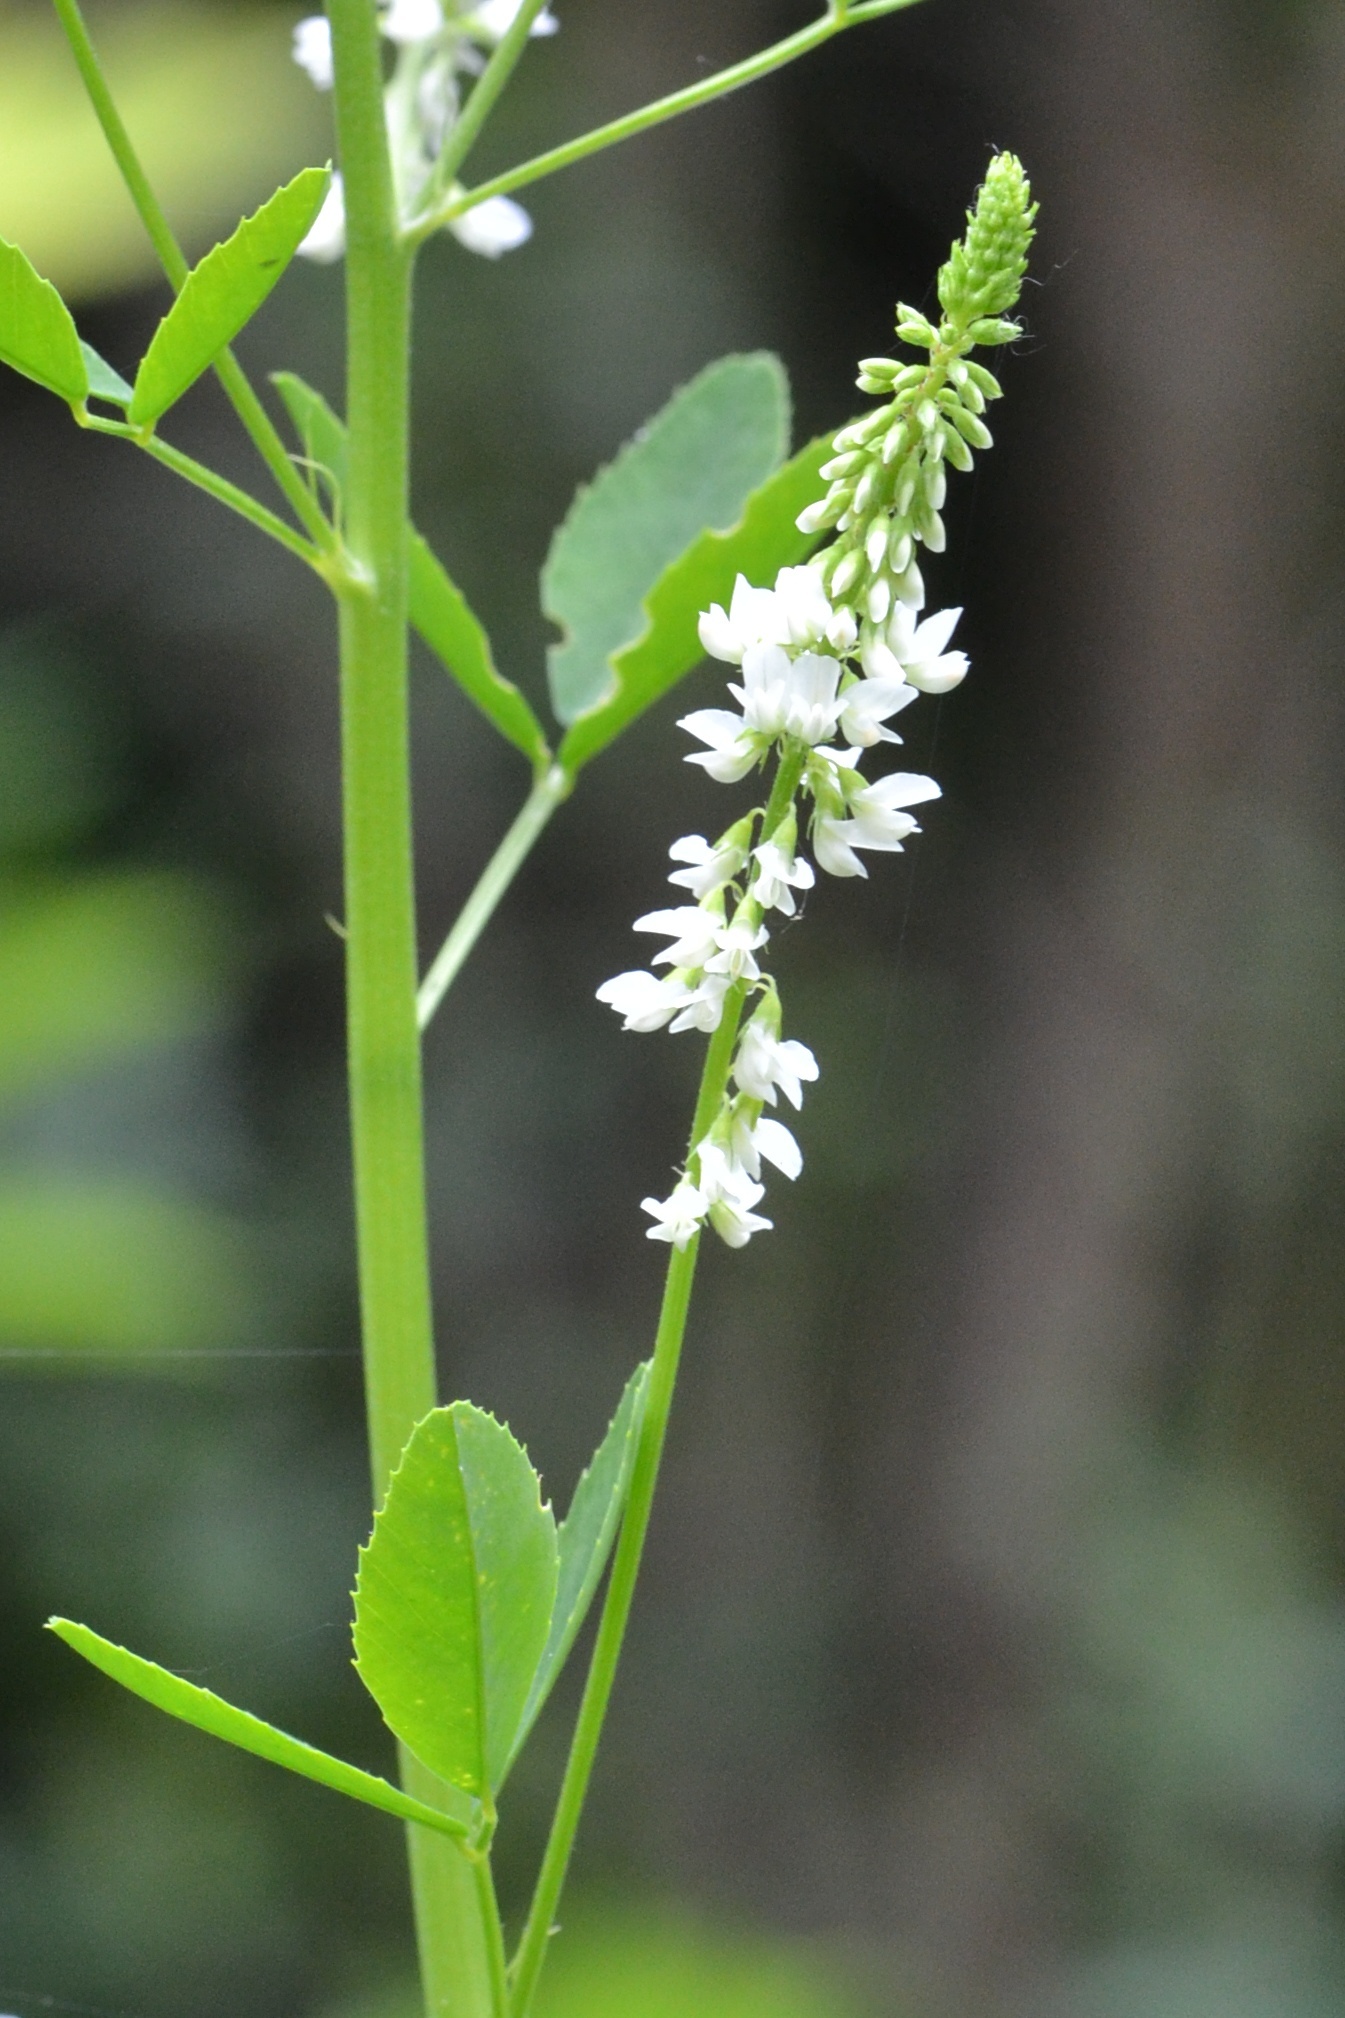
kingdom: Plantae
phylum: Tracheophyta
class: Magnoliopsida
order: Fabales
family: Fabaceae
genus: Melilotus
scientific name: Melilotus albus
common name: White melilot
